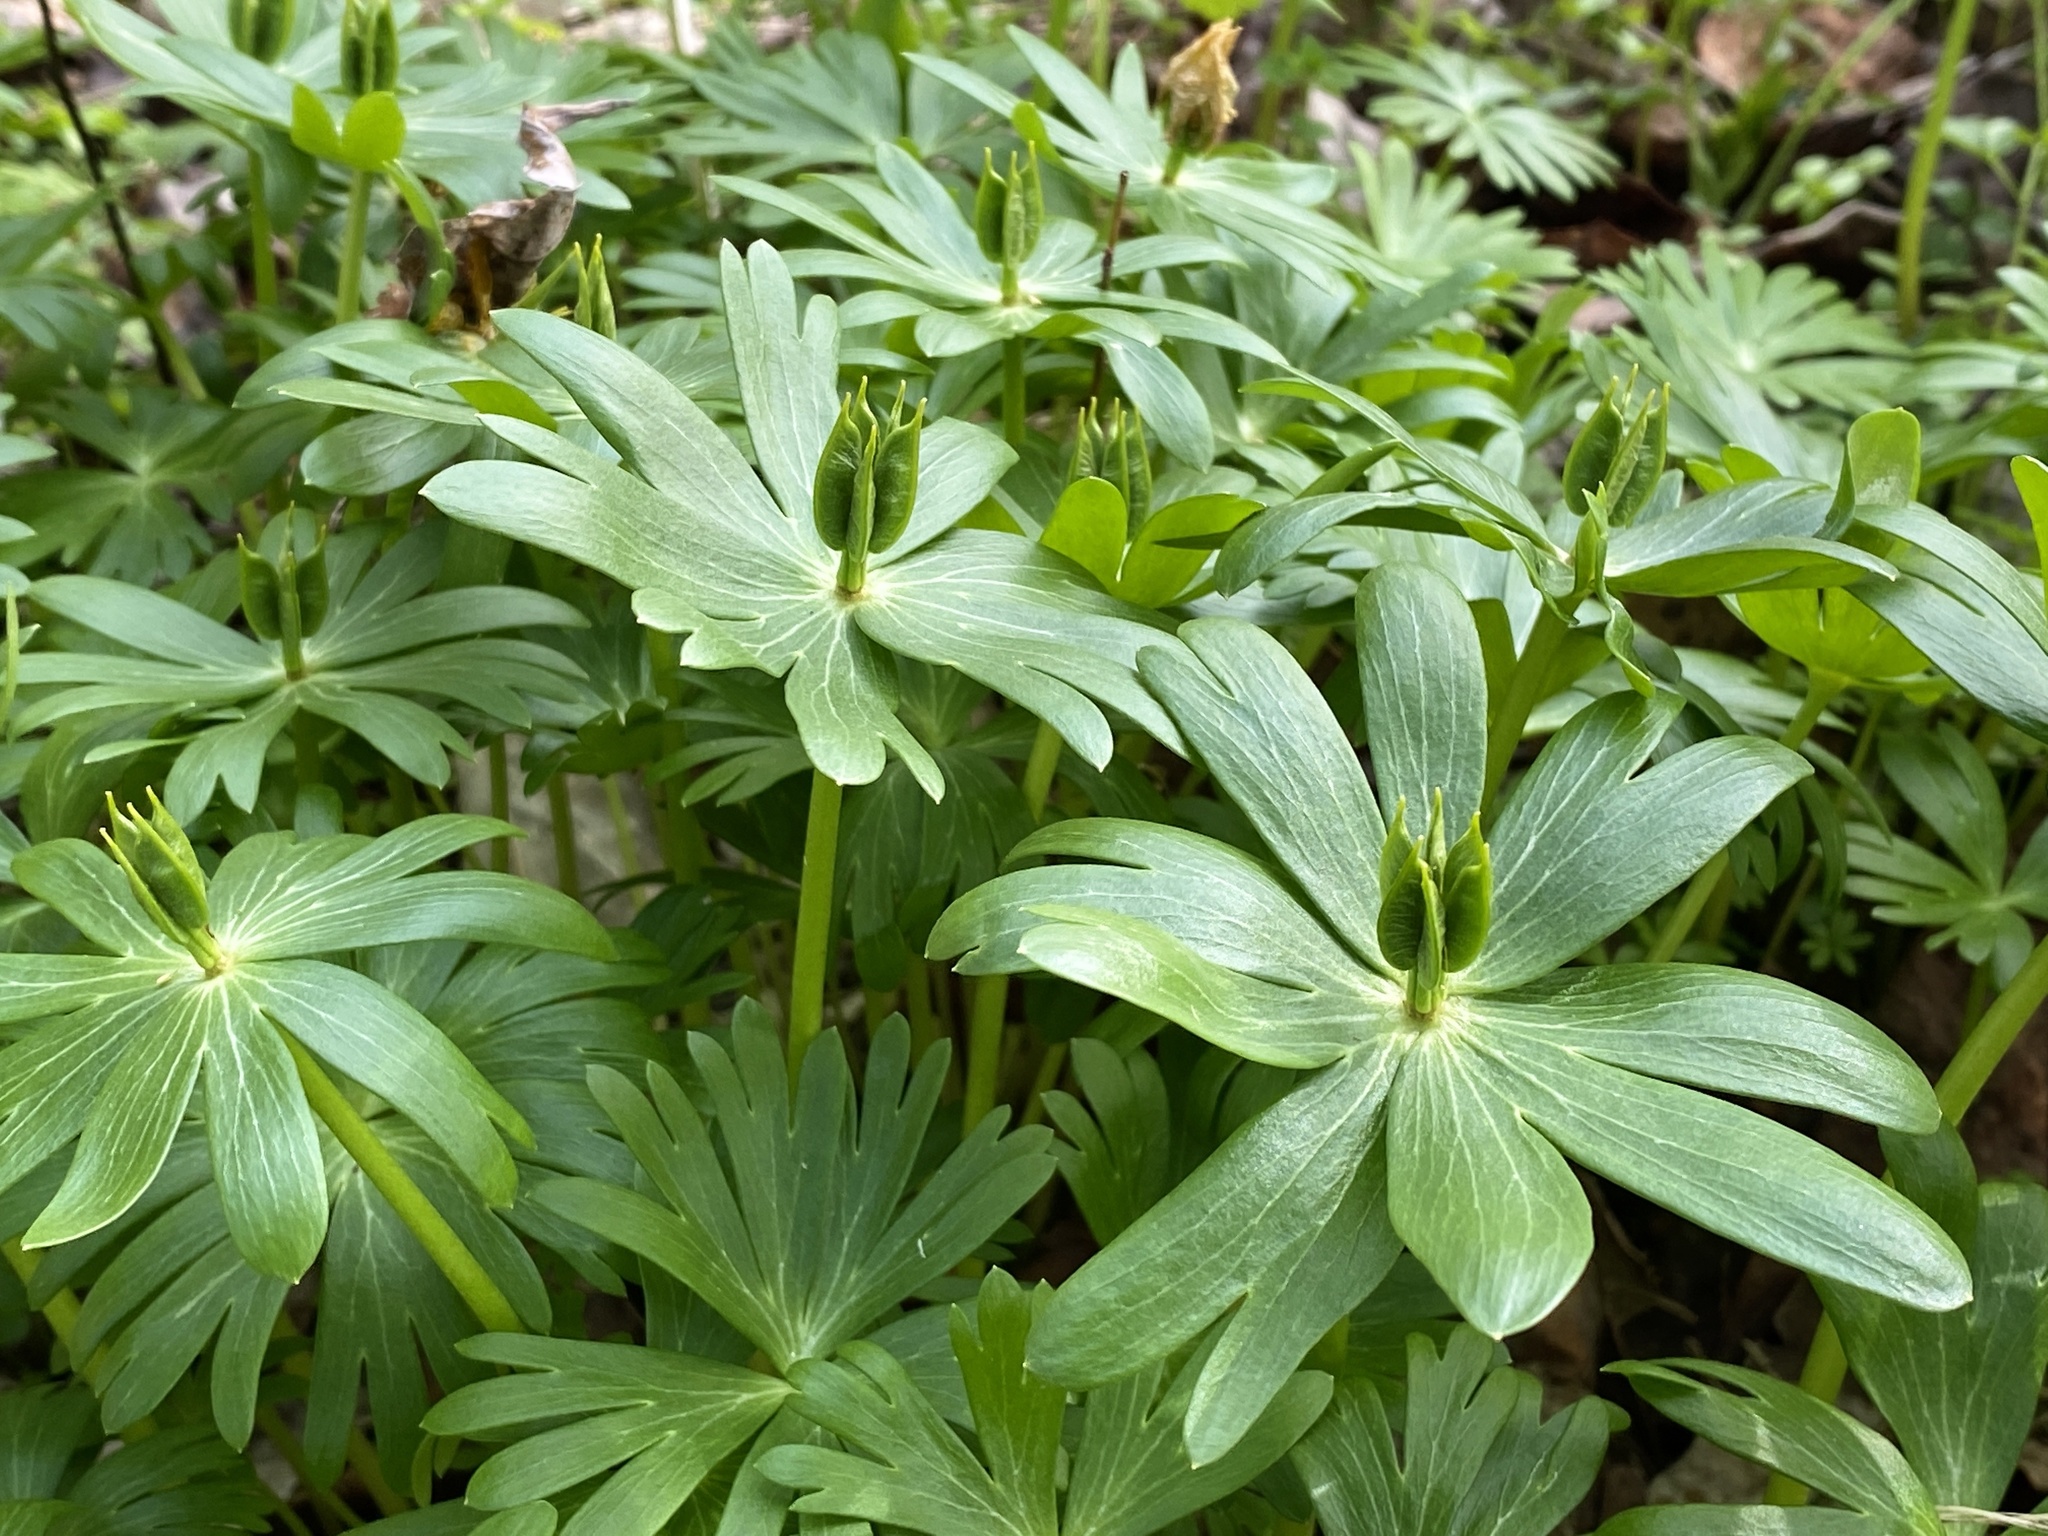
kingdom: Plantae
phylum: Tracheophyta
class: Magnoliopsida
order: Ranunculales
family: Ranunculaceae
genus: Eranthis
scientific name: Eranthis hyemalis
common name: Winter aconite
